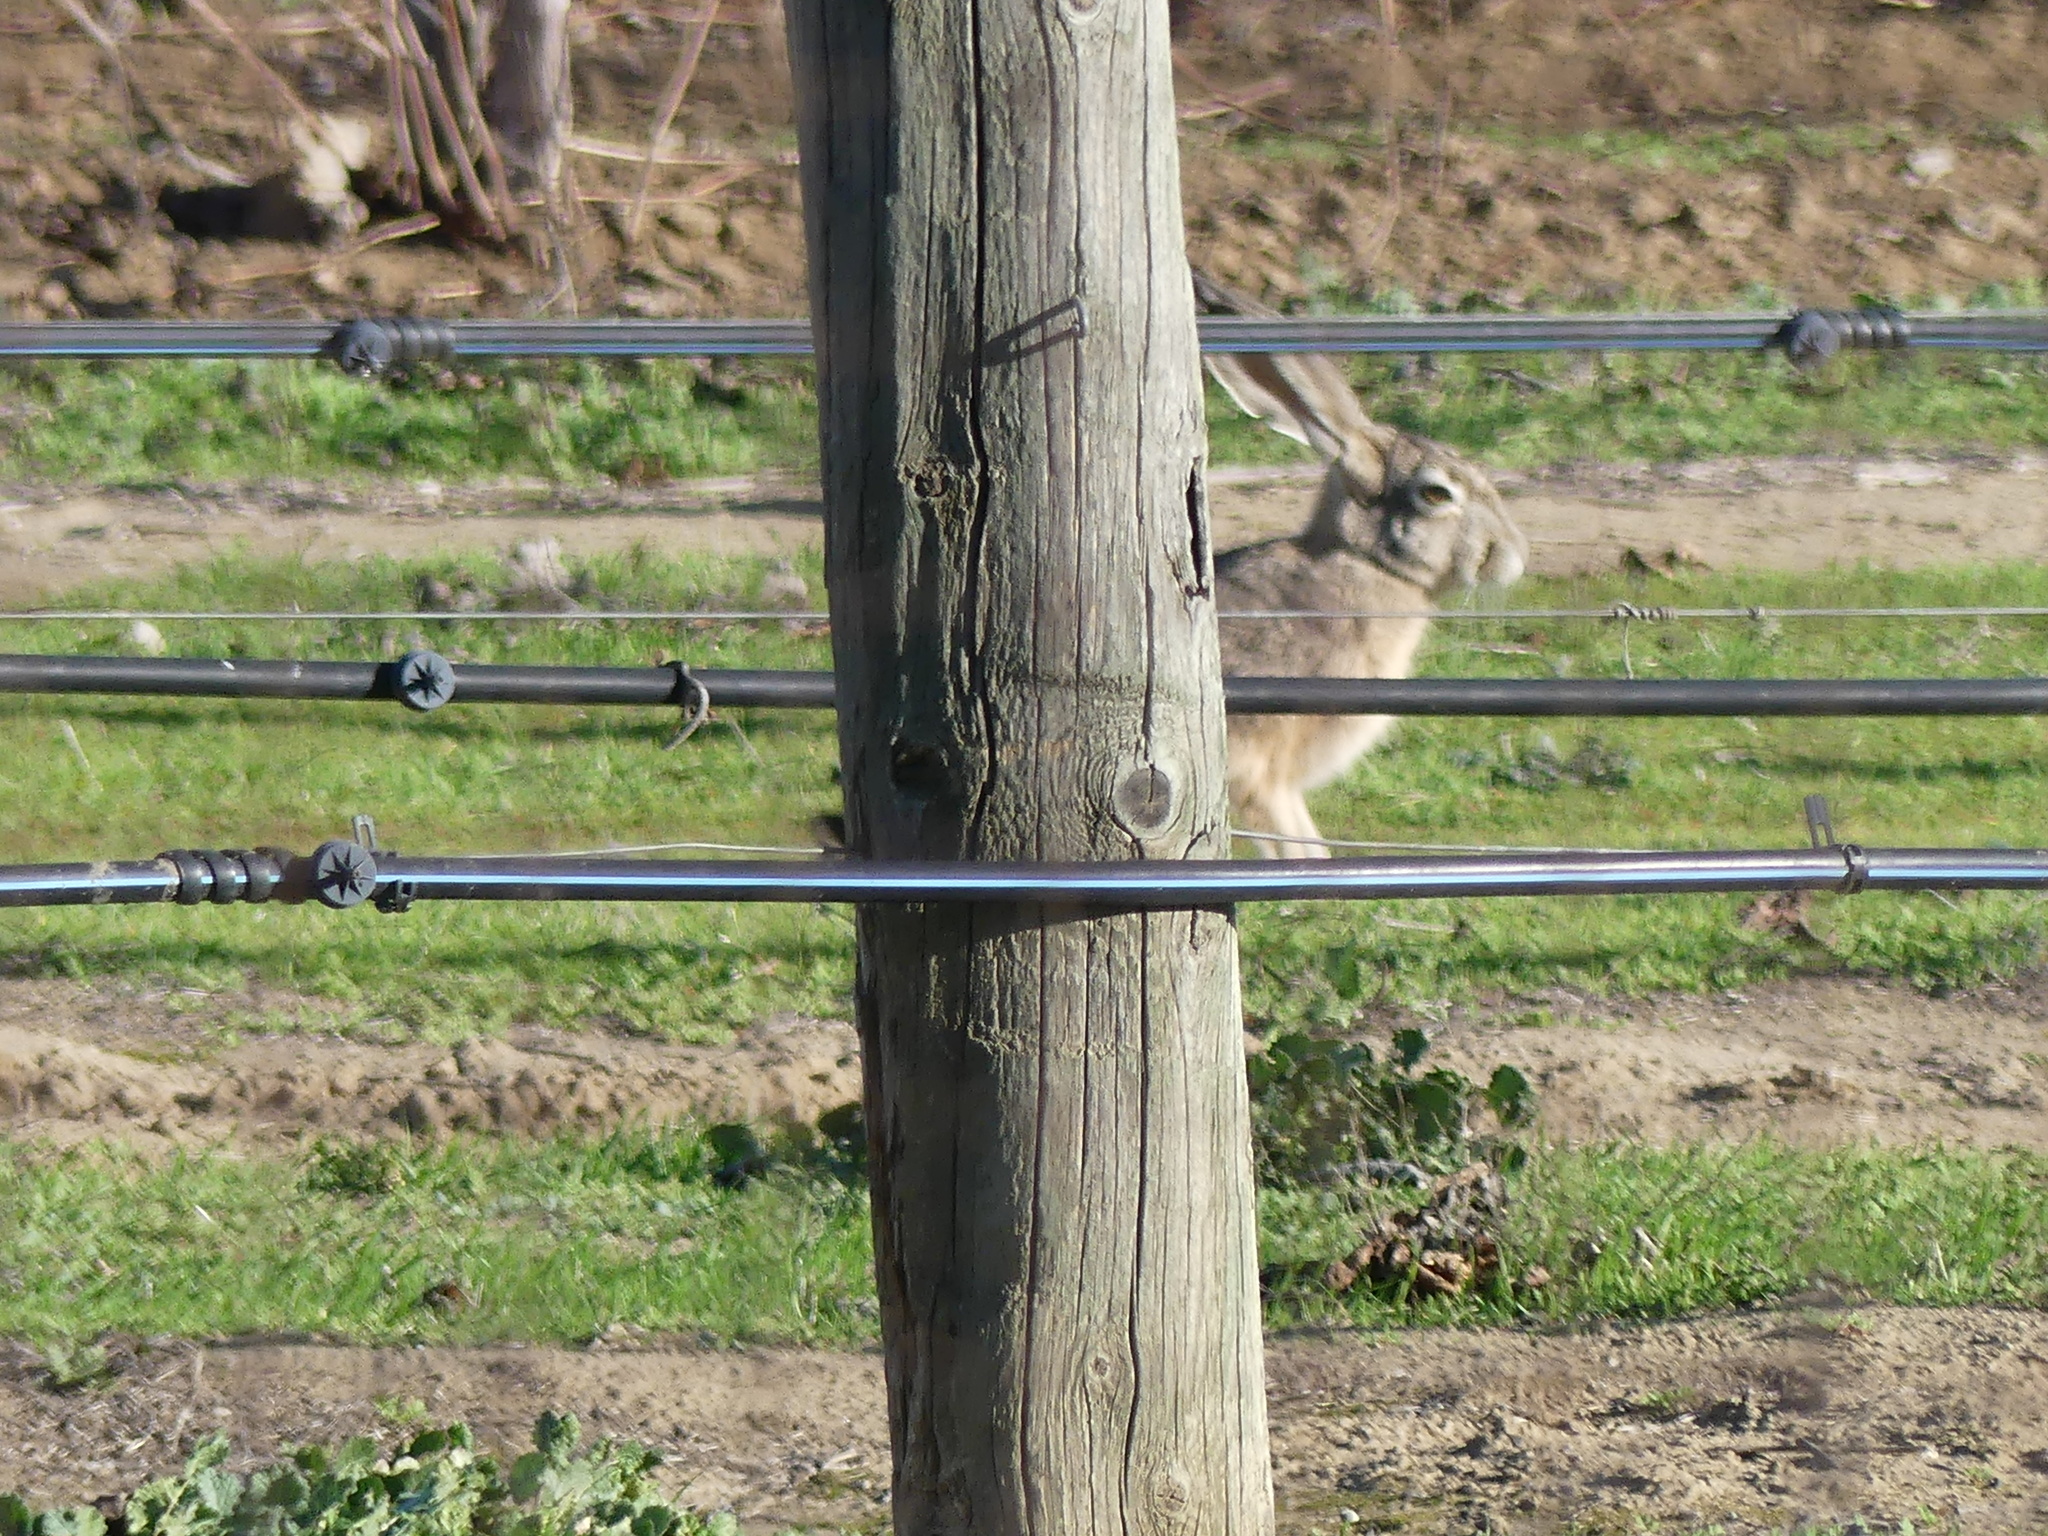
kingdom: Animalia
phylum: Chordata
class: Mammalia
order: Lagomorpha
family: Leporidae
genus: Lepus
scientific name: Lepus californicus
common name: Black-tailed jackrabbit
